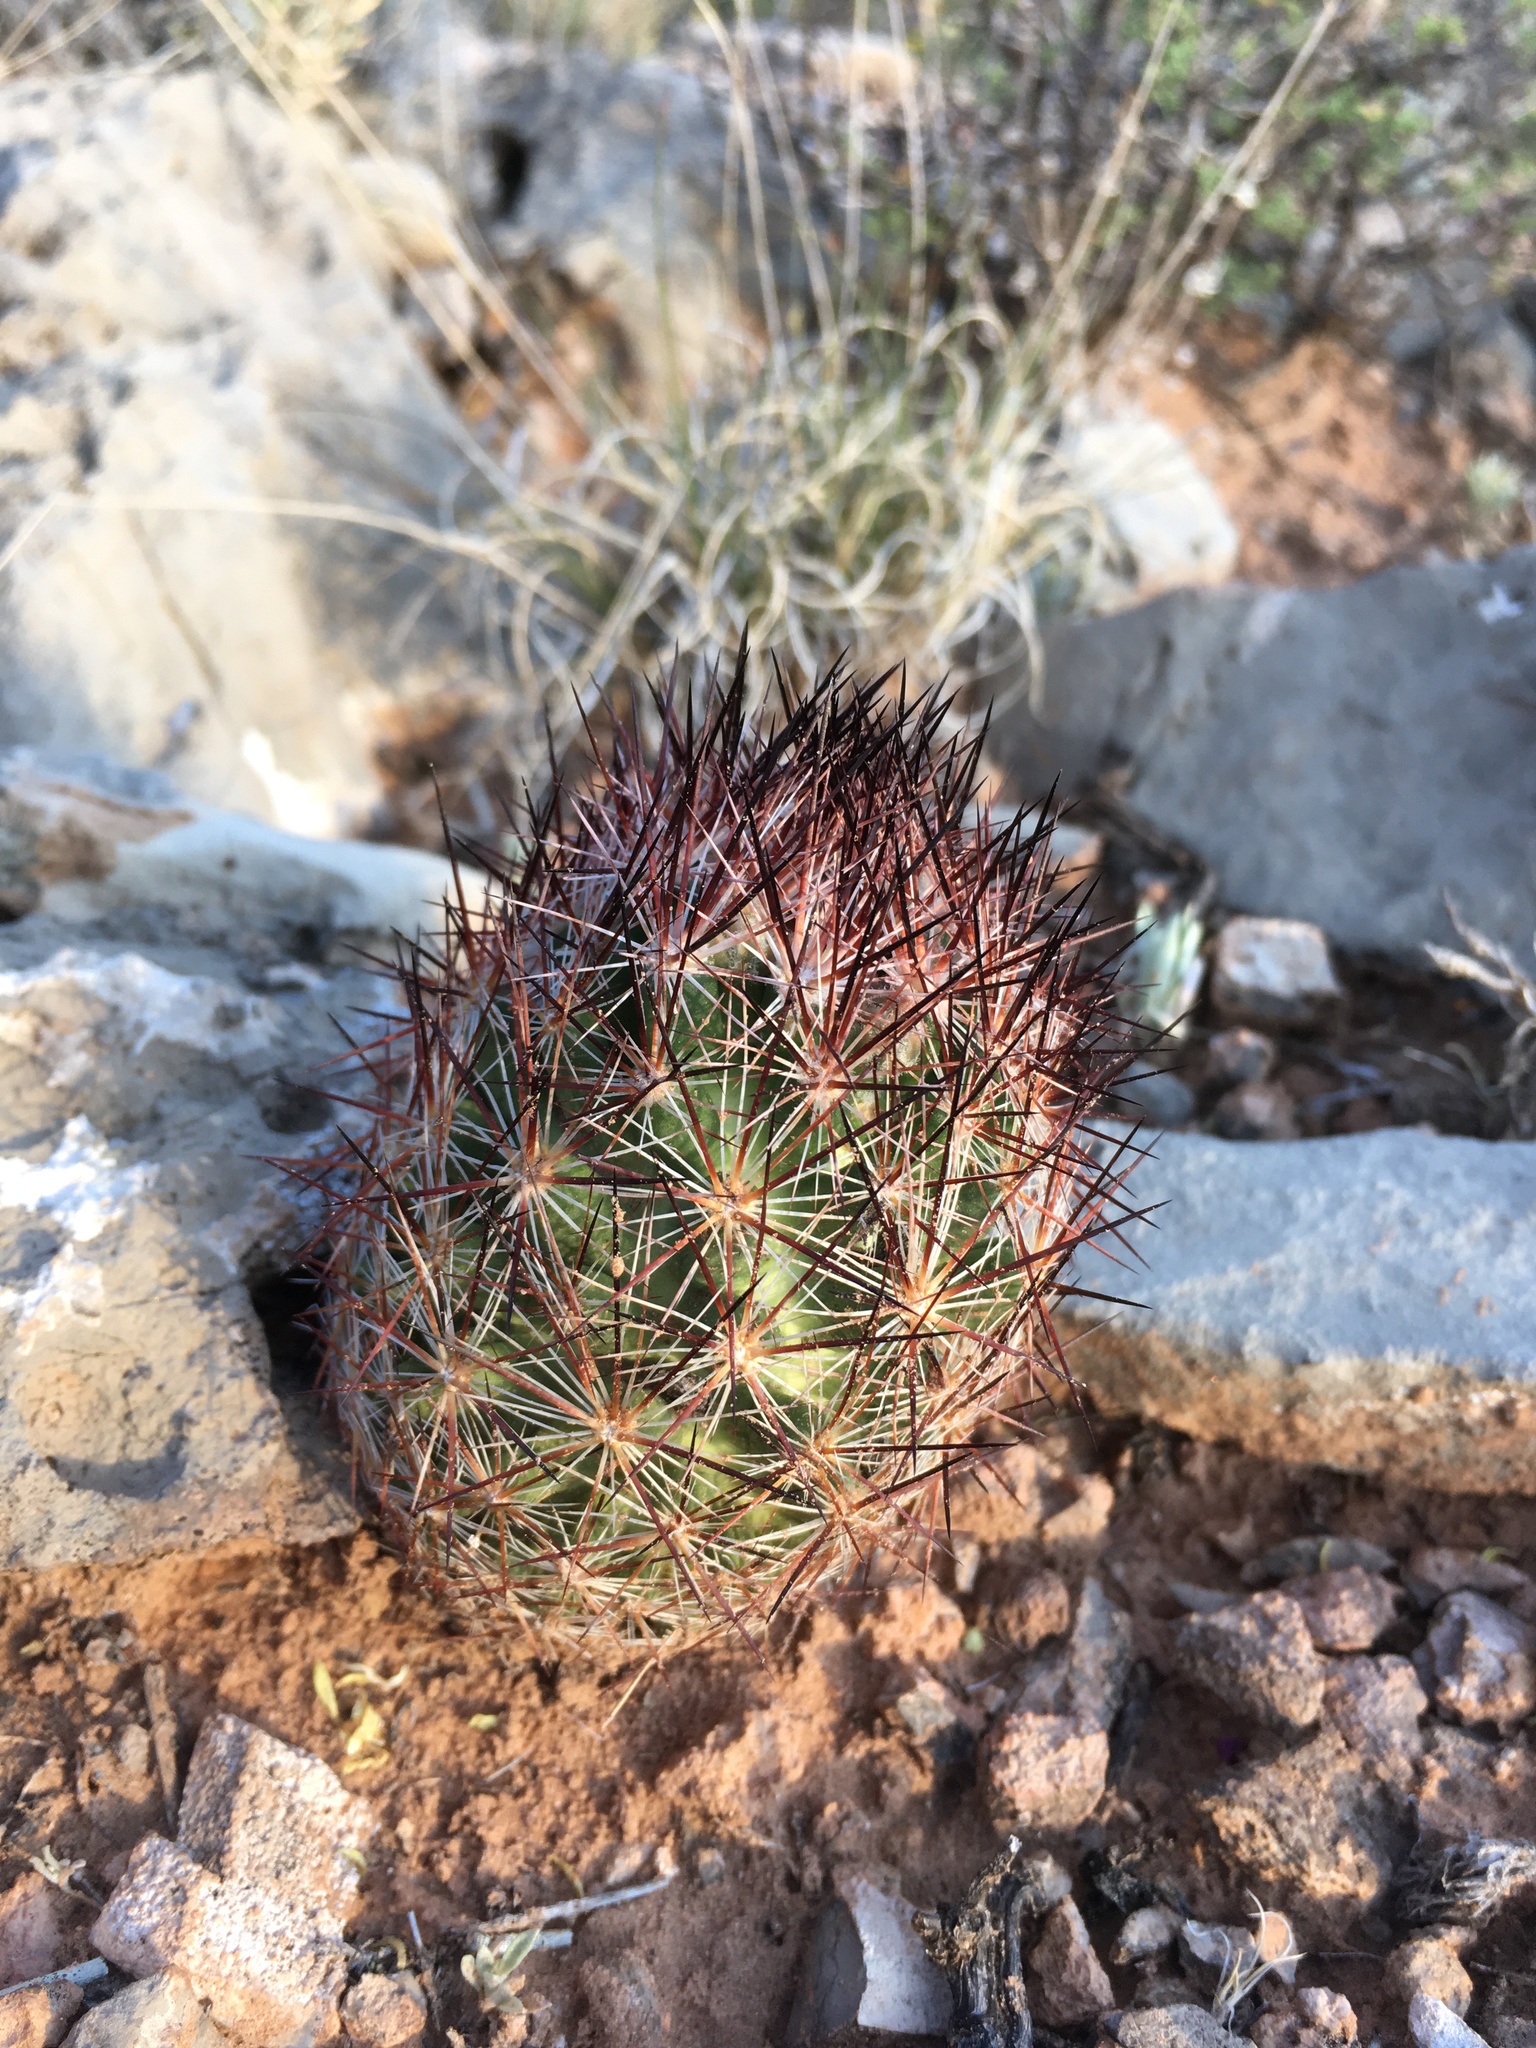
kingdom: Plantae
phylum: Tracheophyta
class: Magnoliopsida
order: Caryophyllales
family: Cactaceae
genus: Pelecyphora
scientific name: Pelecyphora vivipara
